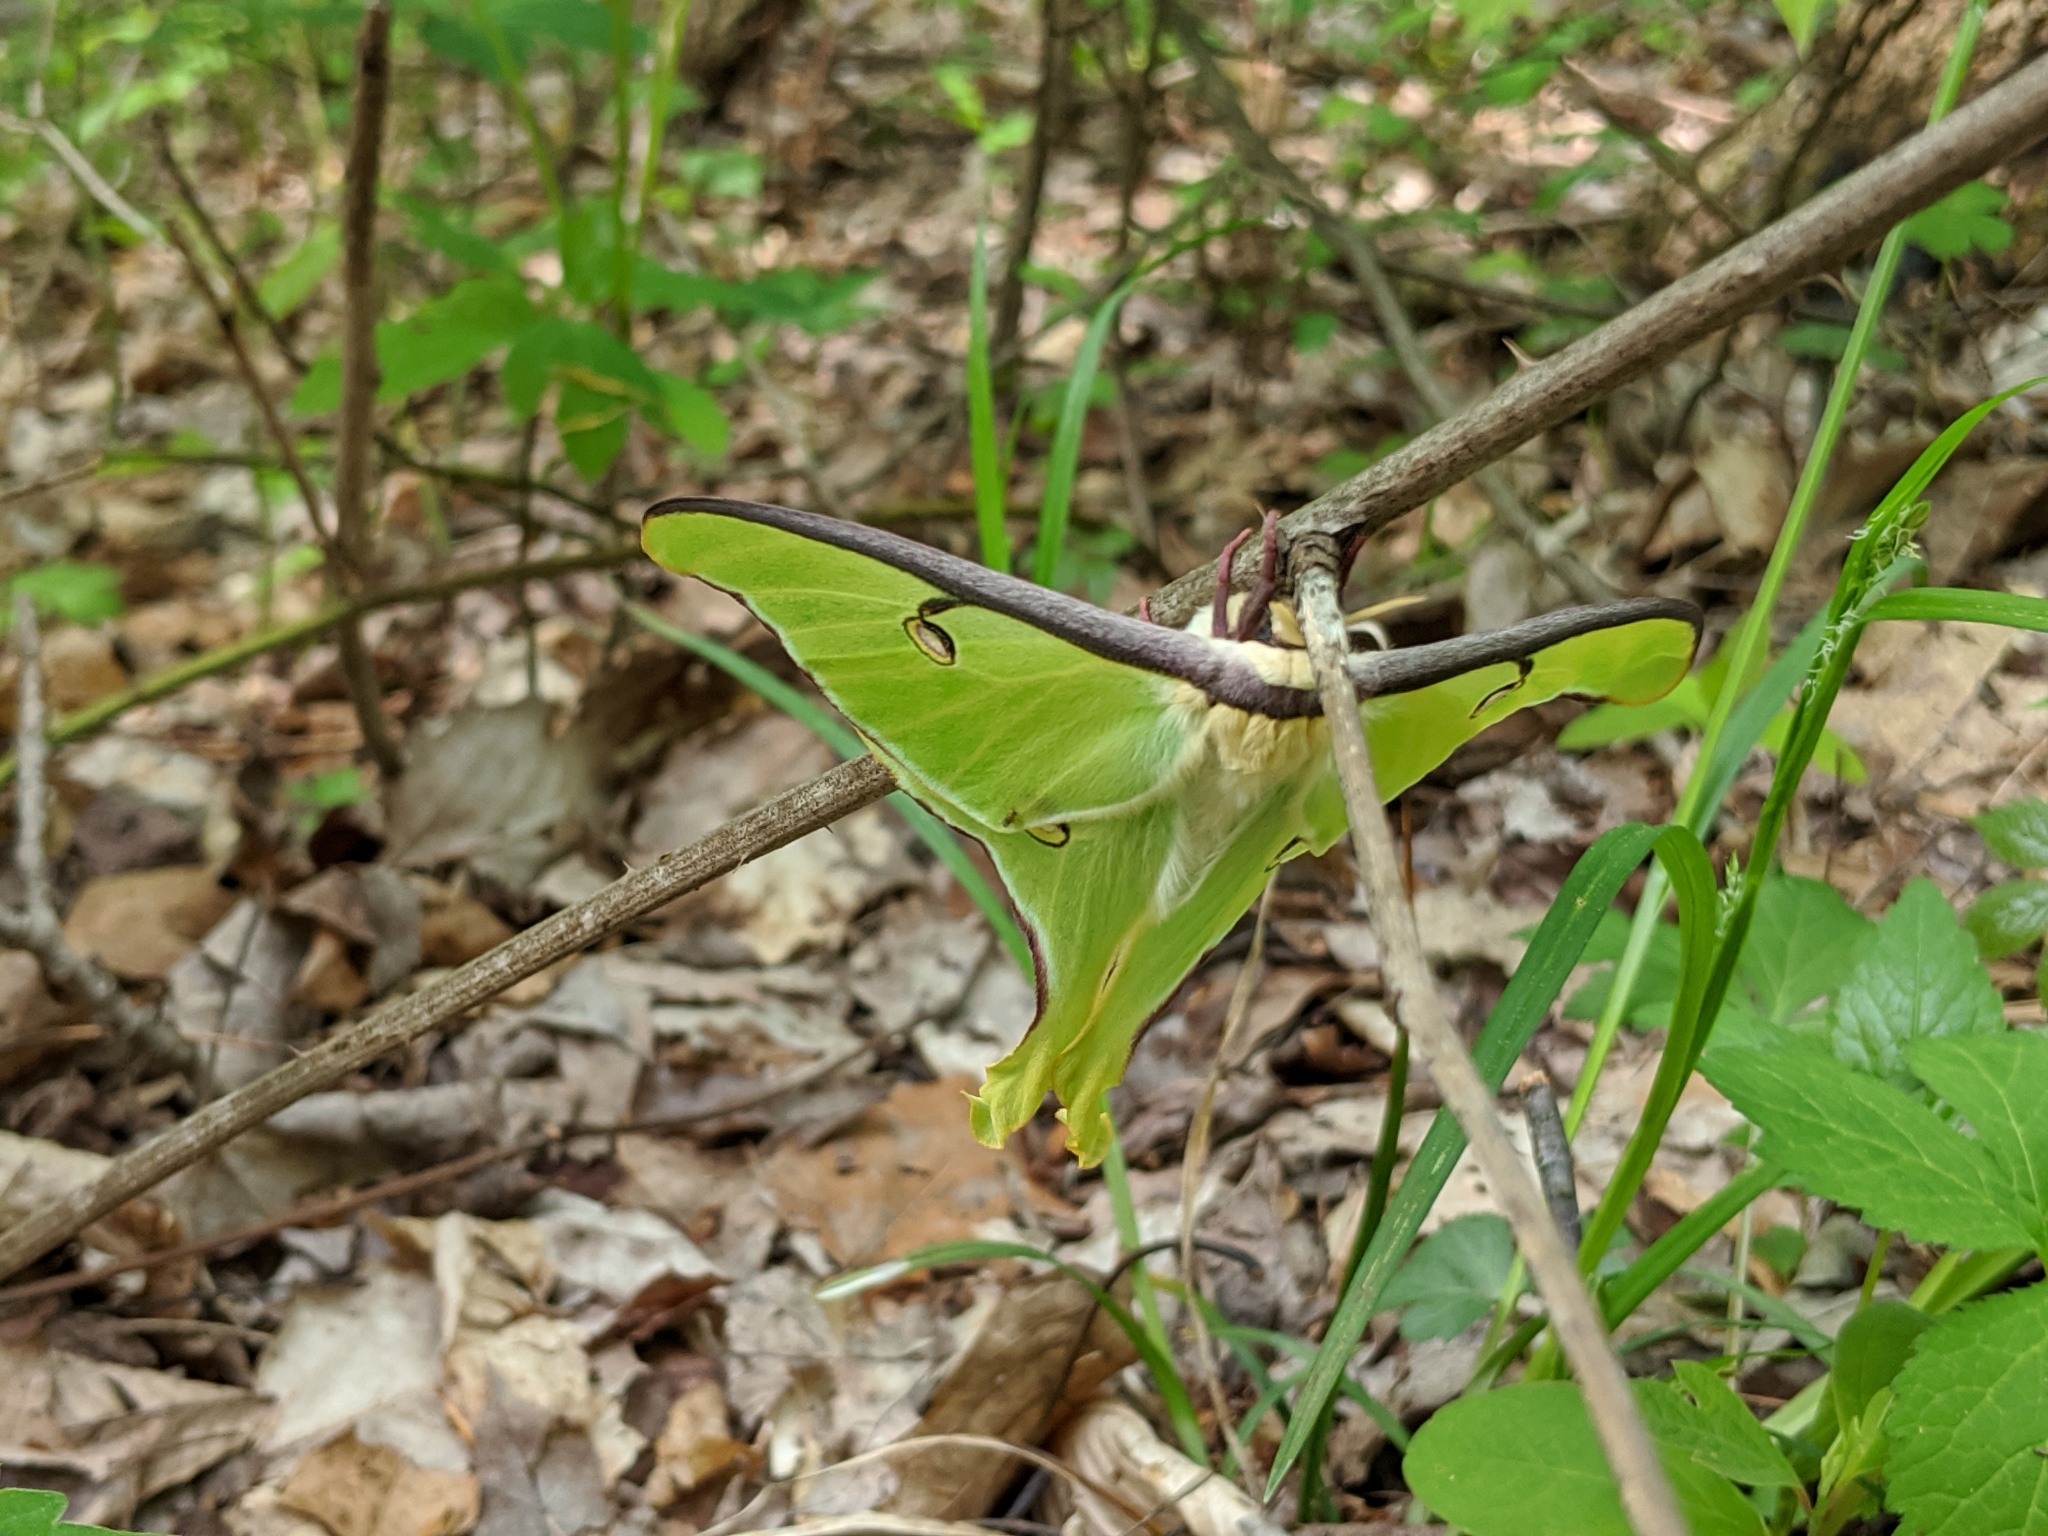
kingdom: Animalia
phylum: Arthropoda
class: Insecta
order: Lepidoptera
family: Saturniidae
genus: Actias
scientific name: Actias luna
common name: Luna moth
